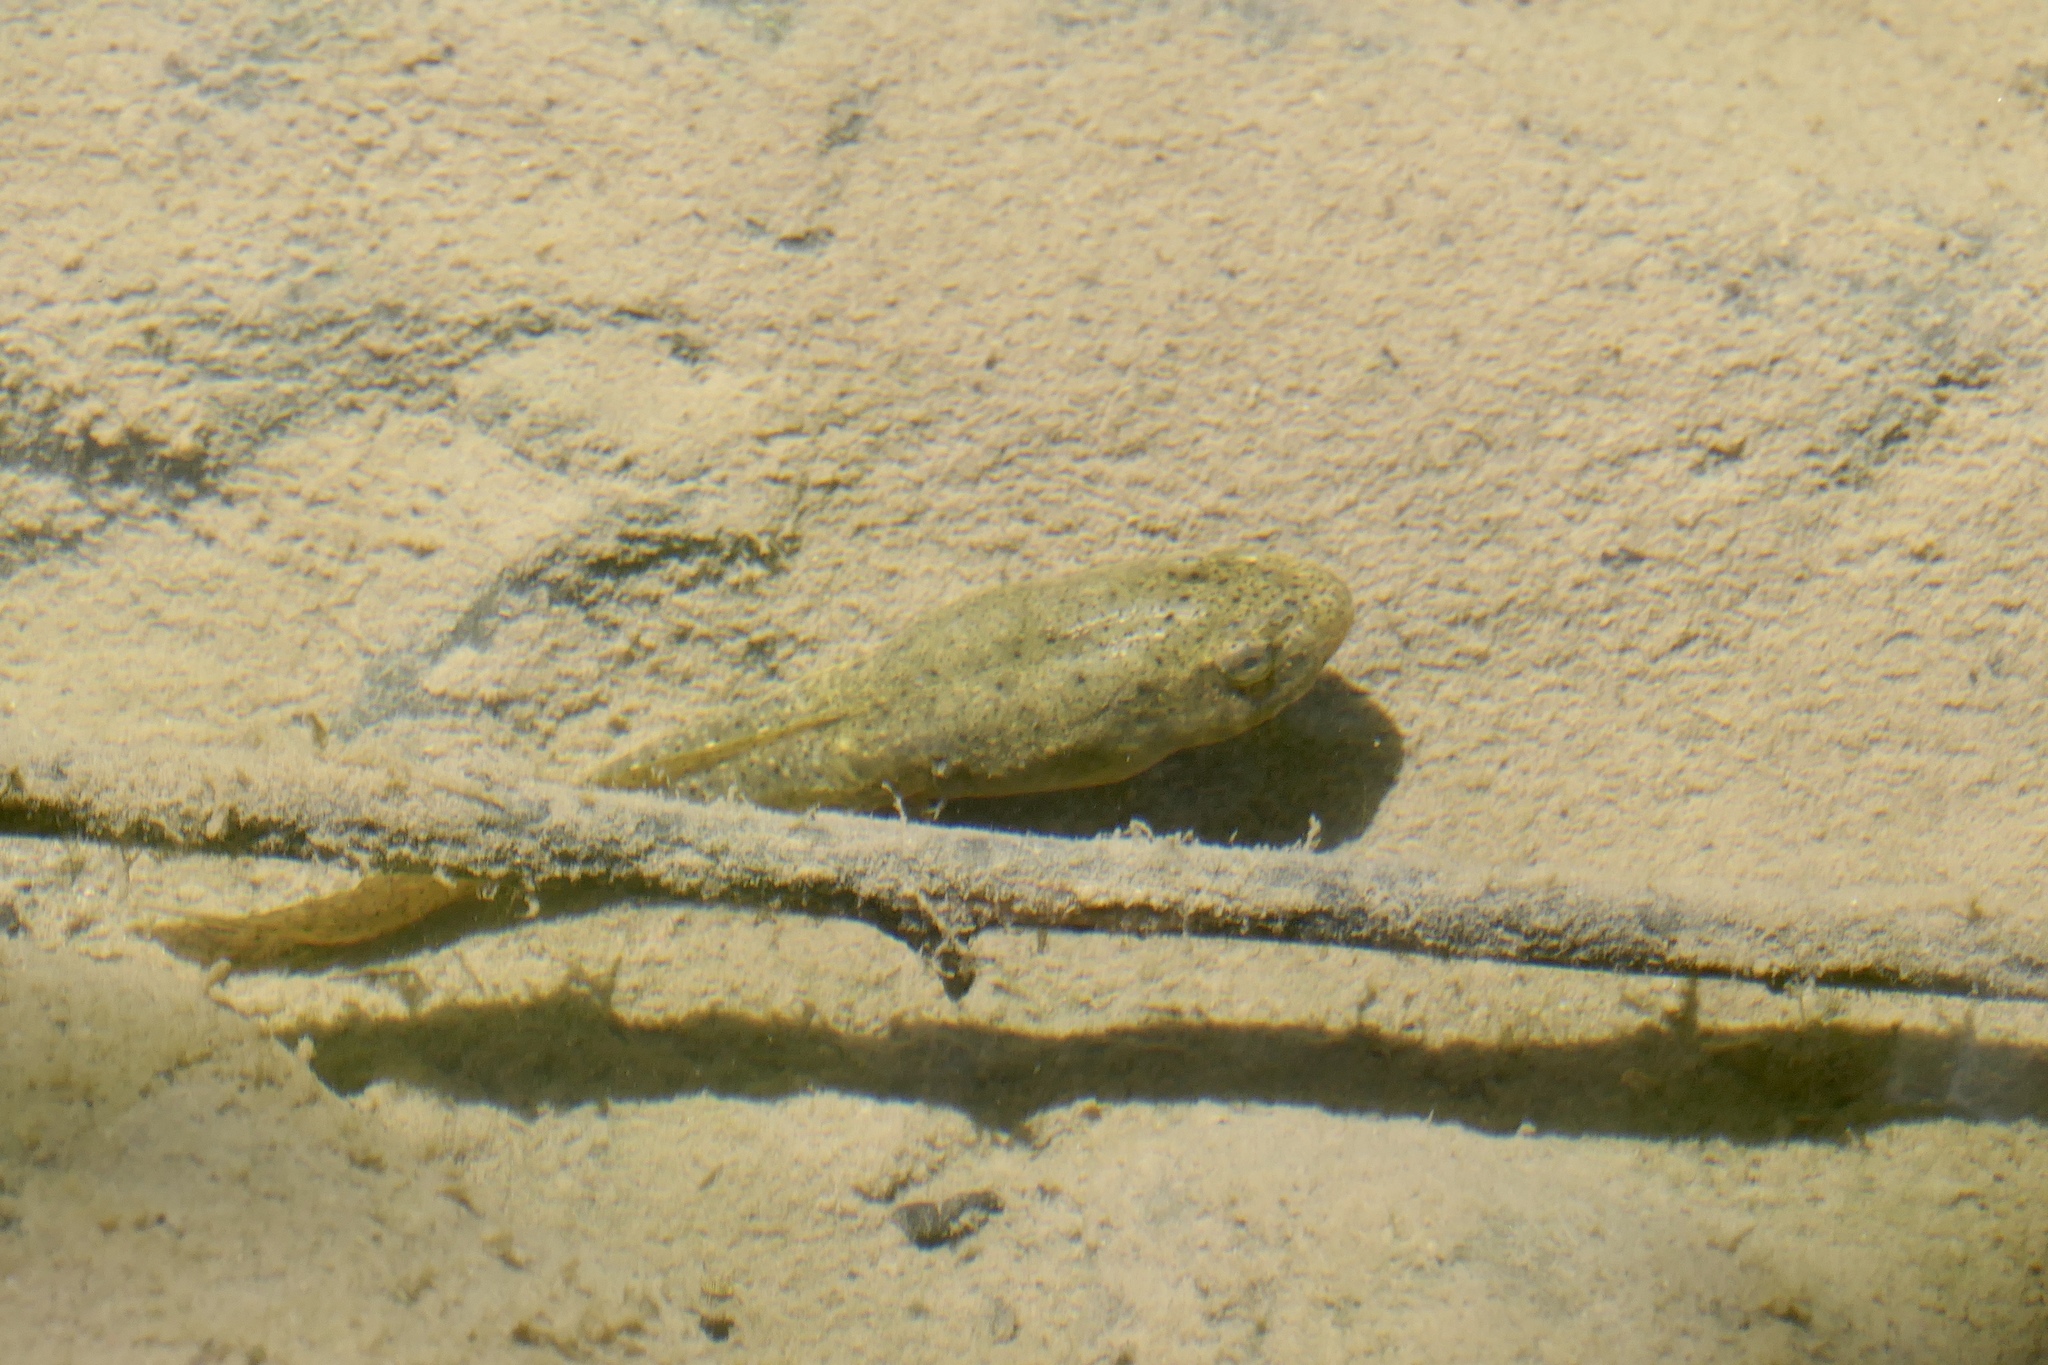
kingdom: Animalia
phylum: Chordata
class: Amphibia
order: Anura
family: Ranidae
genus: Lithobates
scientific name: Lithobates catesbeianus
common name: American bullfrog
